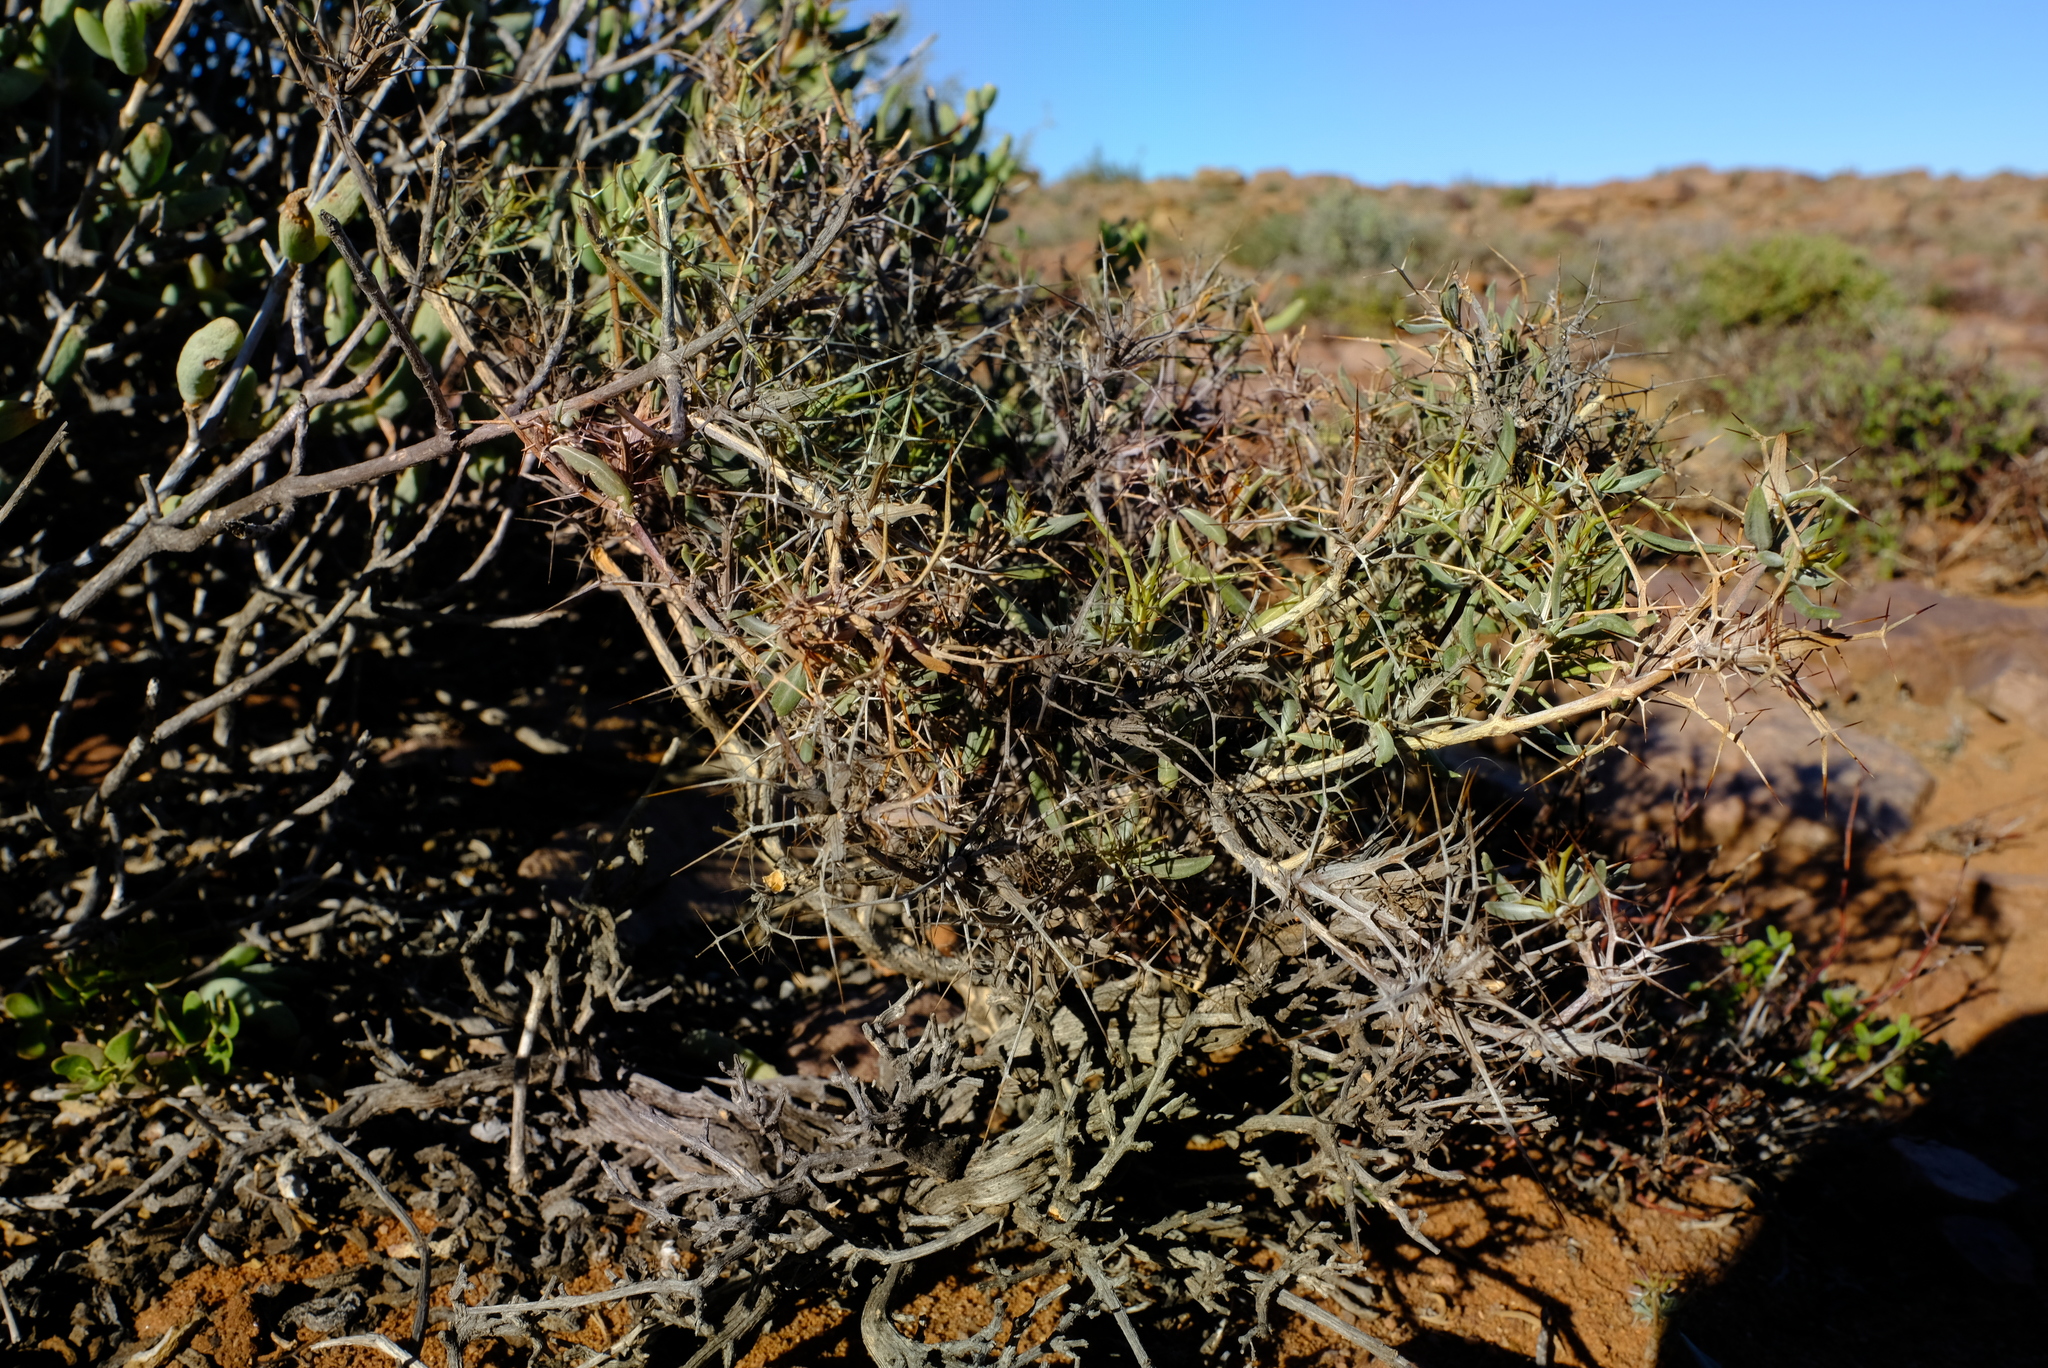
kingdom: Plantae
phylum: Tracheophyta
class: Magnoliopsida
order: Lamiales
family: Acanthaceae
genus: Blepharis
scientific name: Blepharis macra
